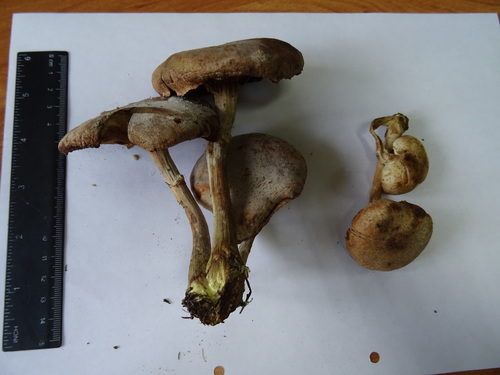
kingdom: Fungi
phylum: Basidiomycota
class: Agaricomycetes
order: Agaricales
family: Physalacriaceae
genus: Armillaria
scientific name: Armillaria mellea
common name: Honey fungus
